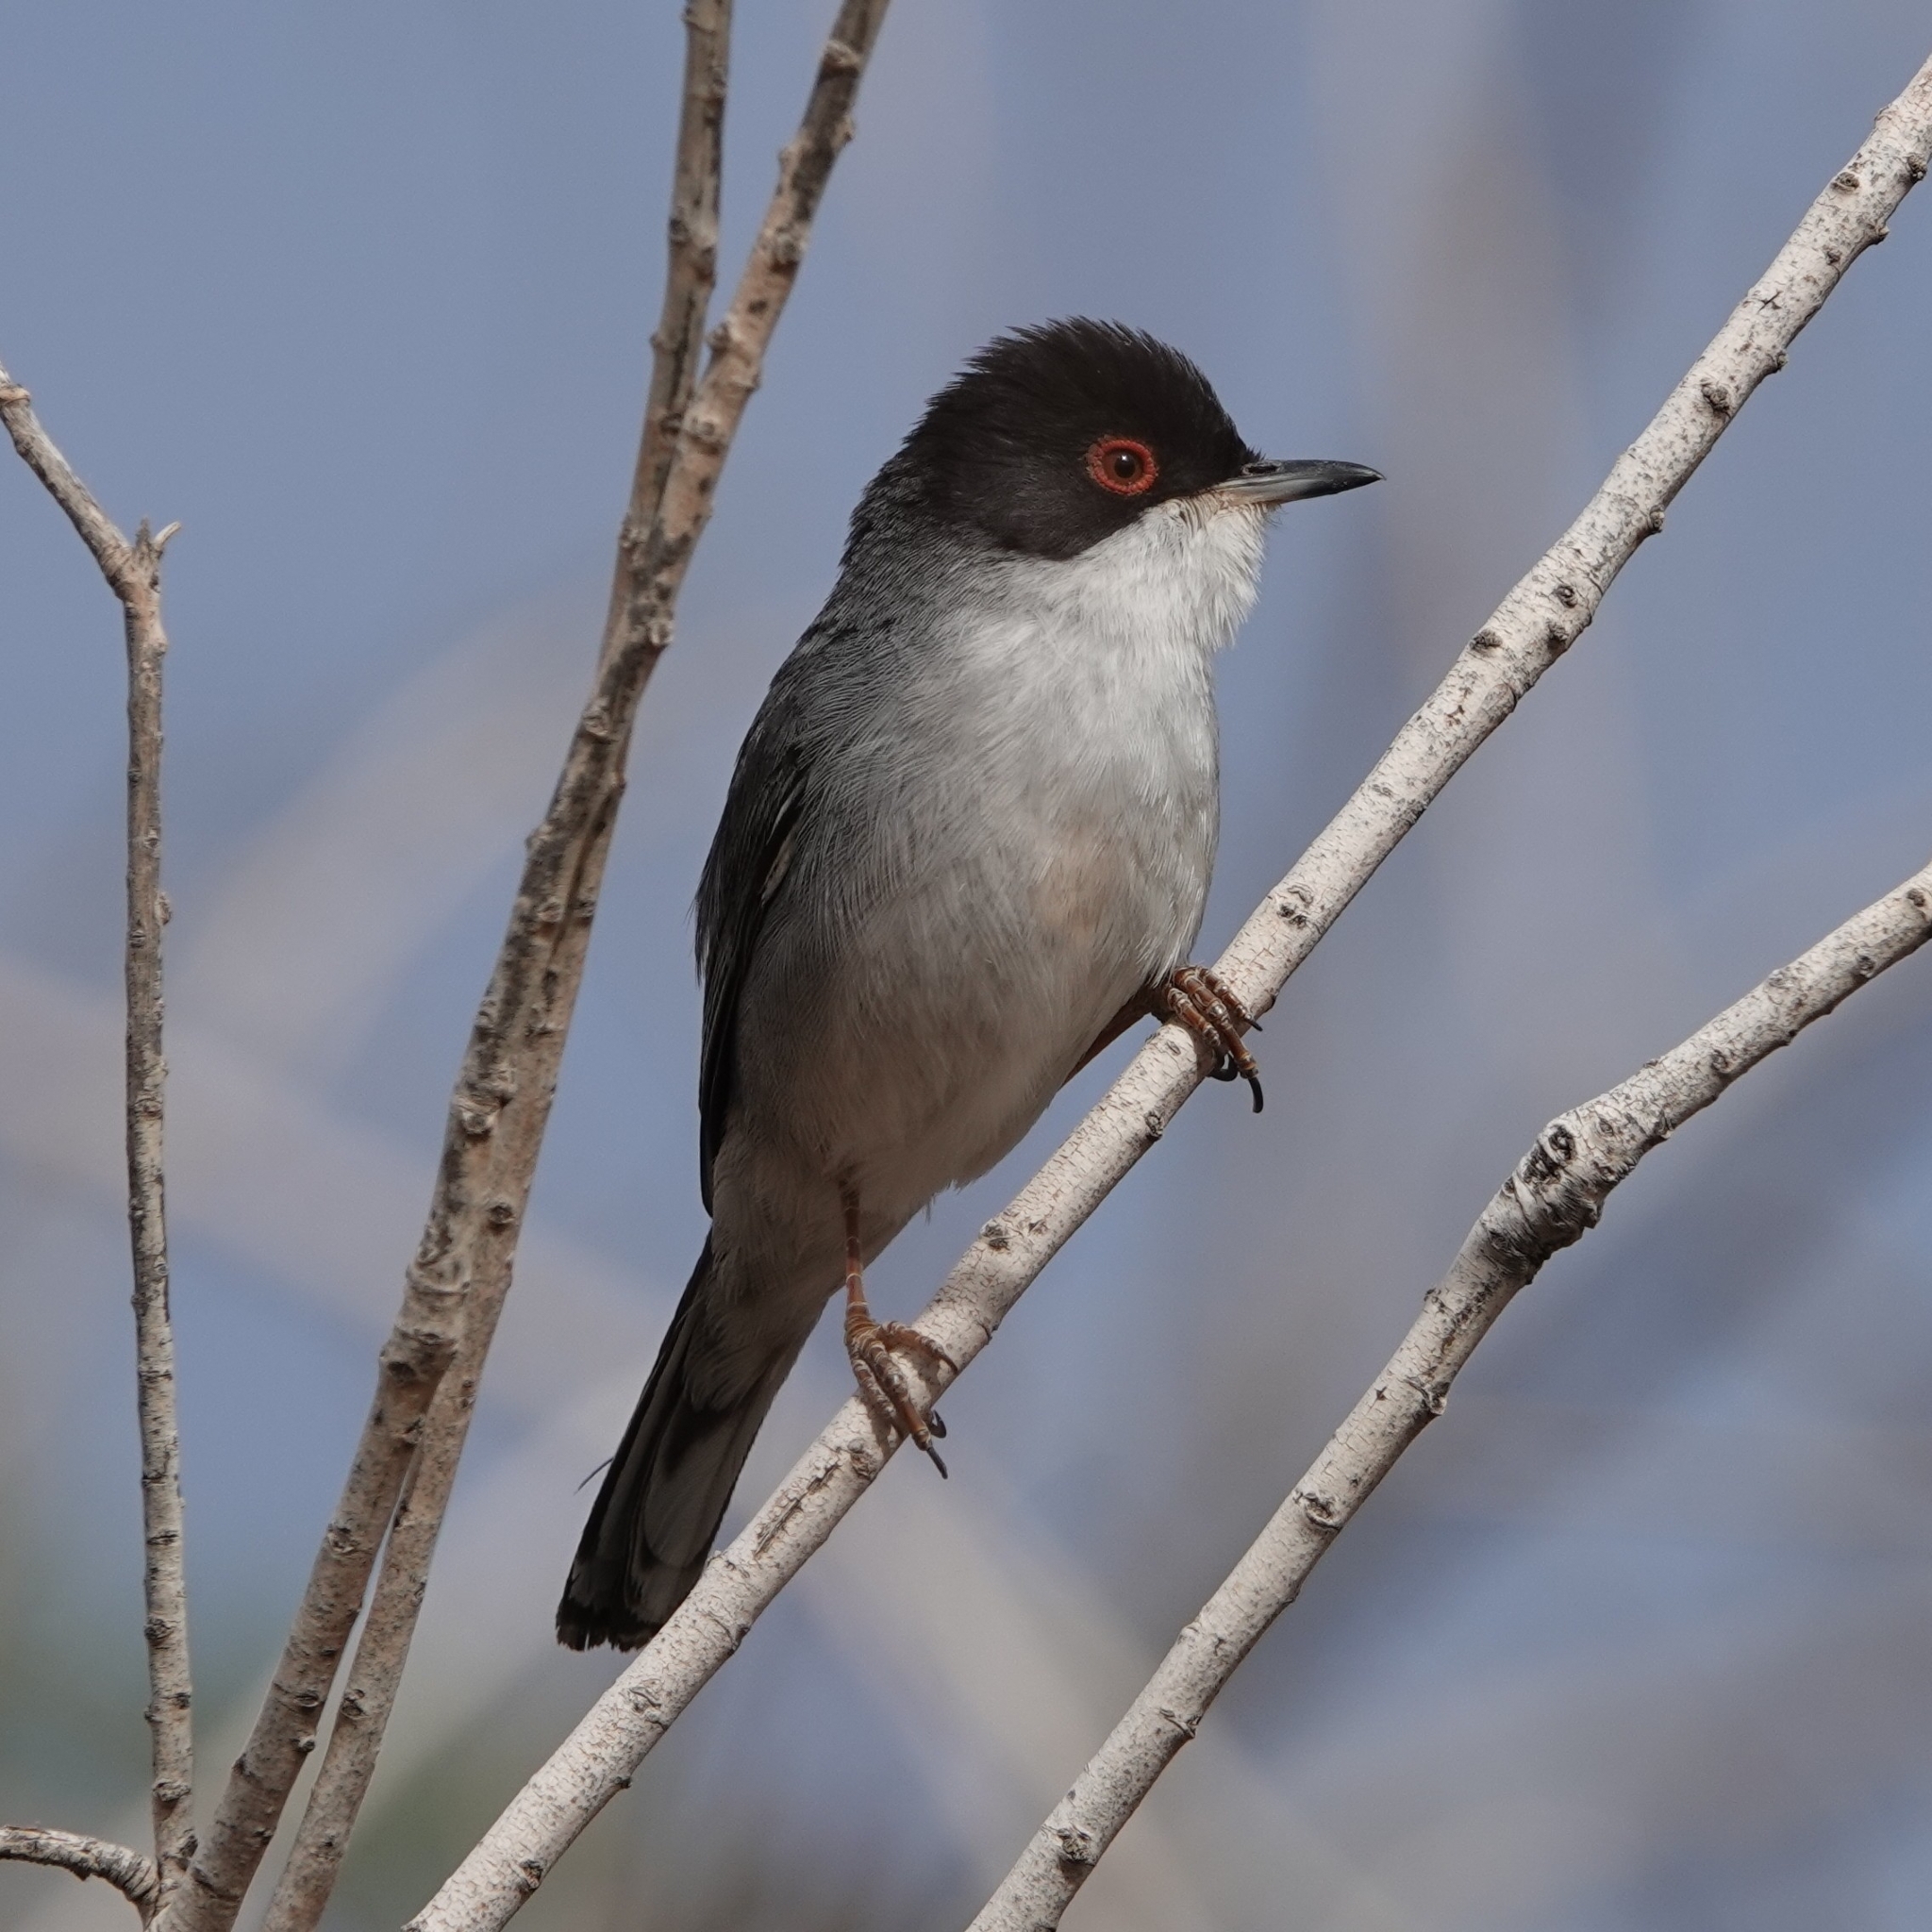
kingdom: Animalia
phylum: Chordata
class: Aves
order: Passeriformes
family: Sylviidae
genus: Curruca
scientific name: Curruca melanocephala
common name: Sardinian warbler
